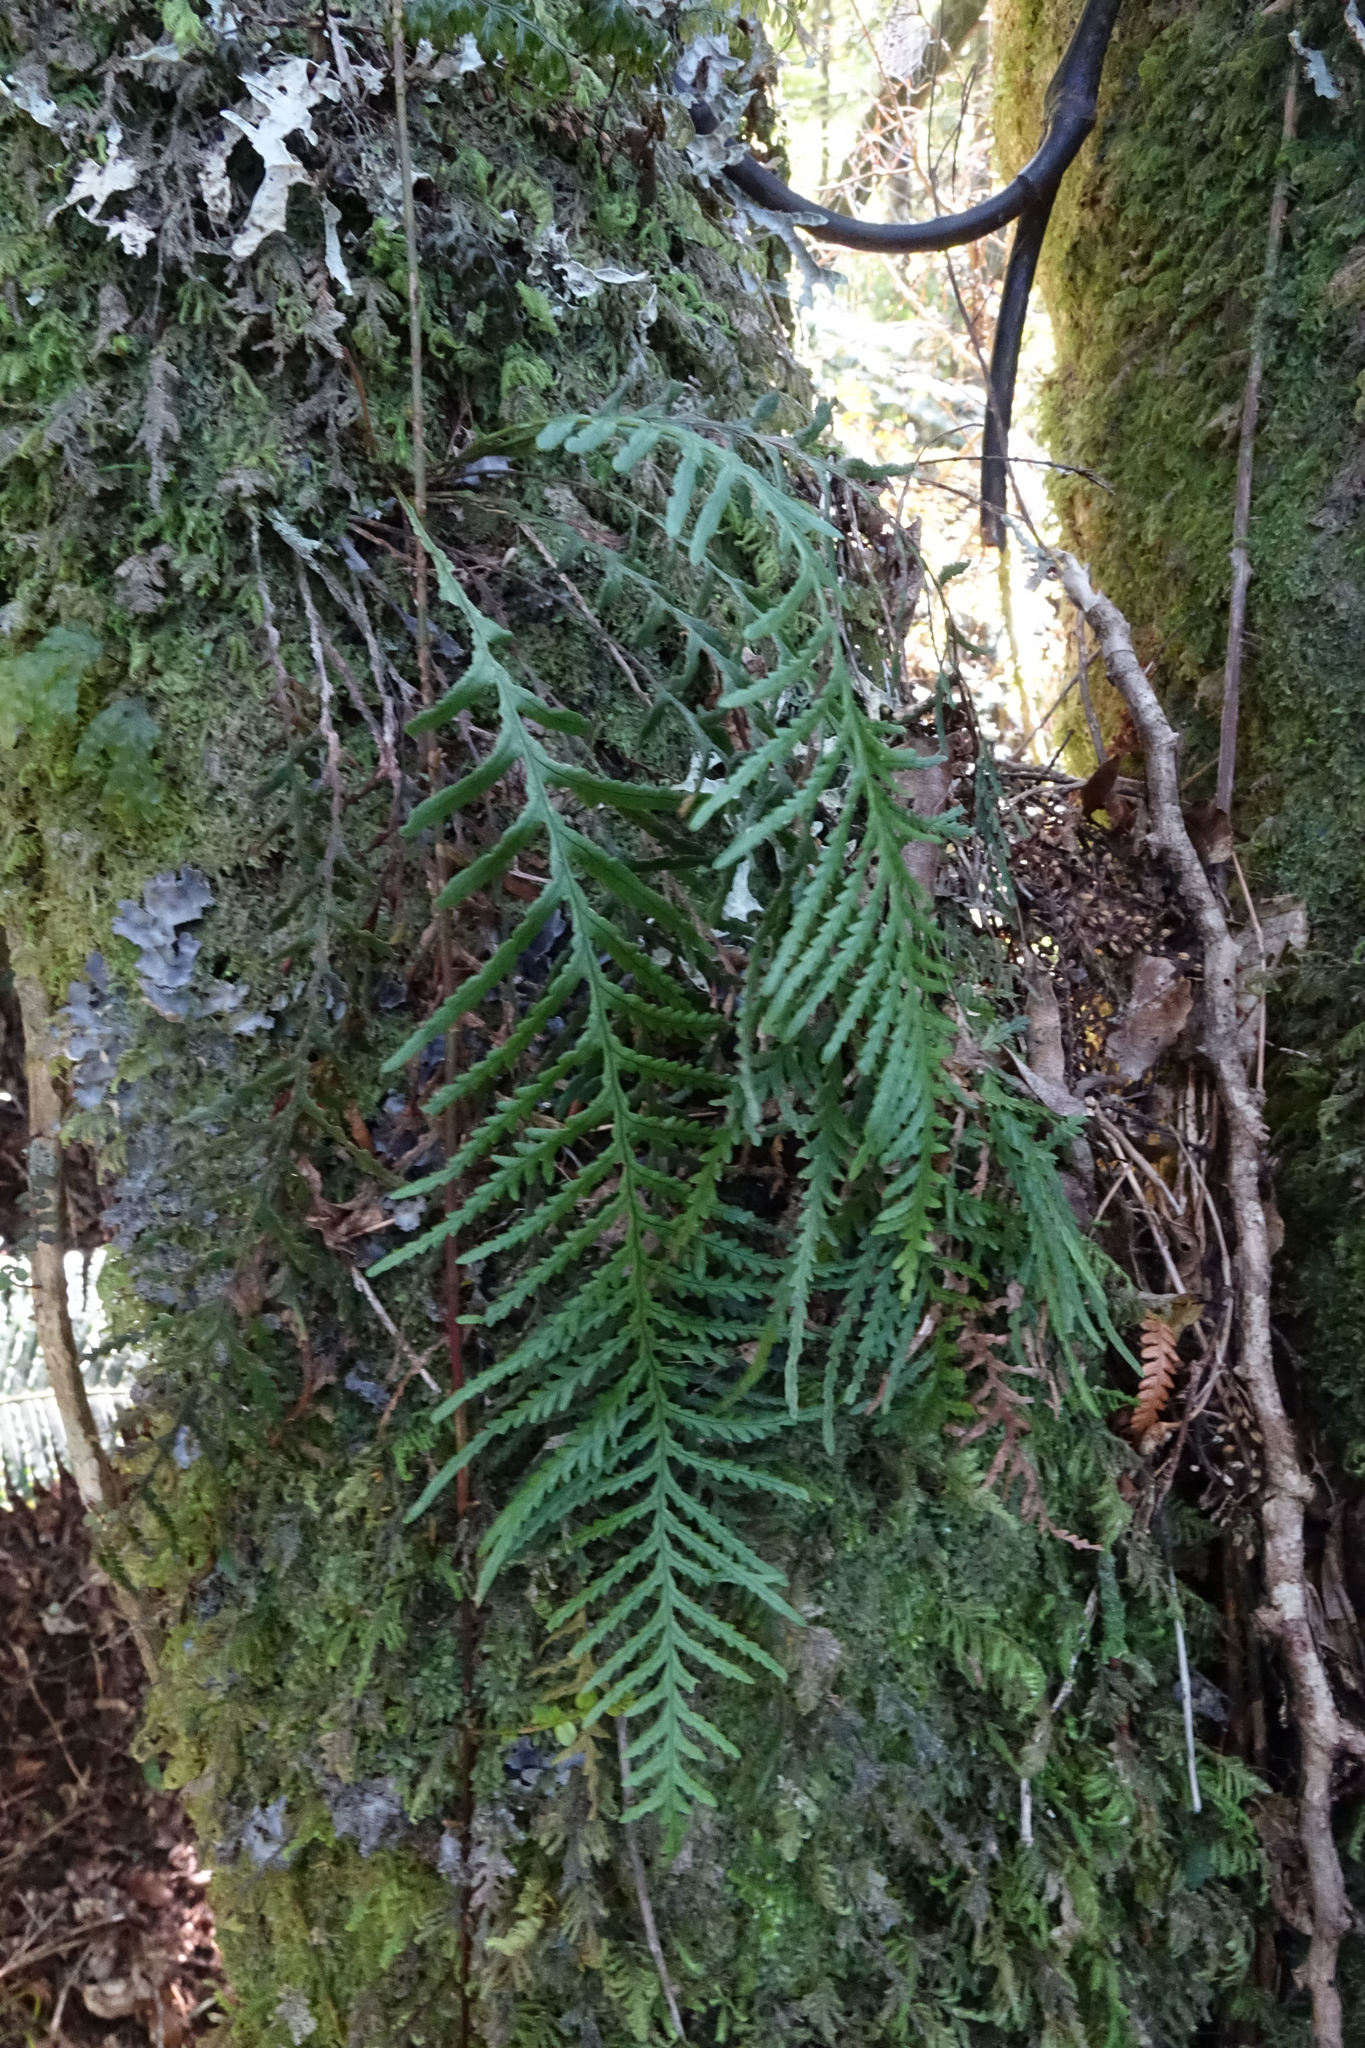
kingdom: Plantae
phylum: Tracheophyta
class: Polypodiopsida
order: Polypodiales
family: Polypodiaceae
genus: Notogrammitis
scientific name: Notogrammitis heterophylla
